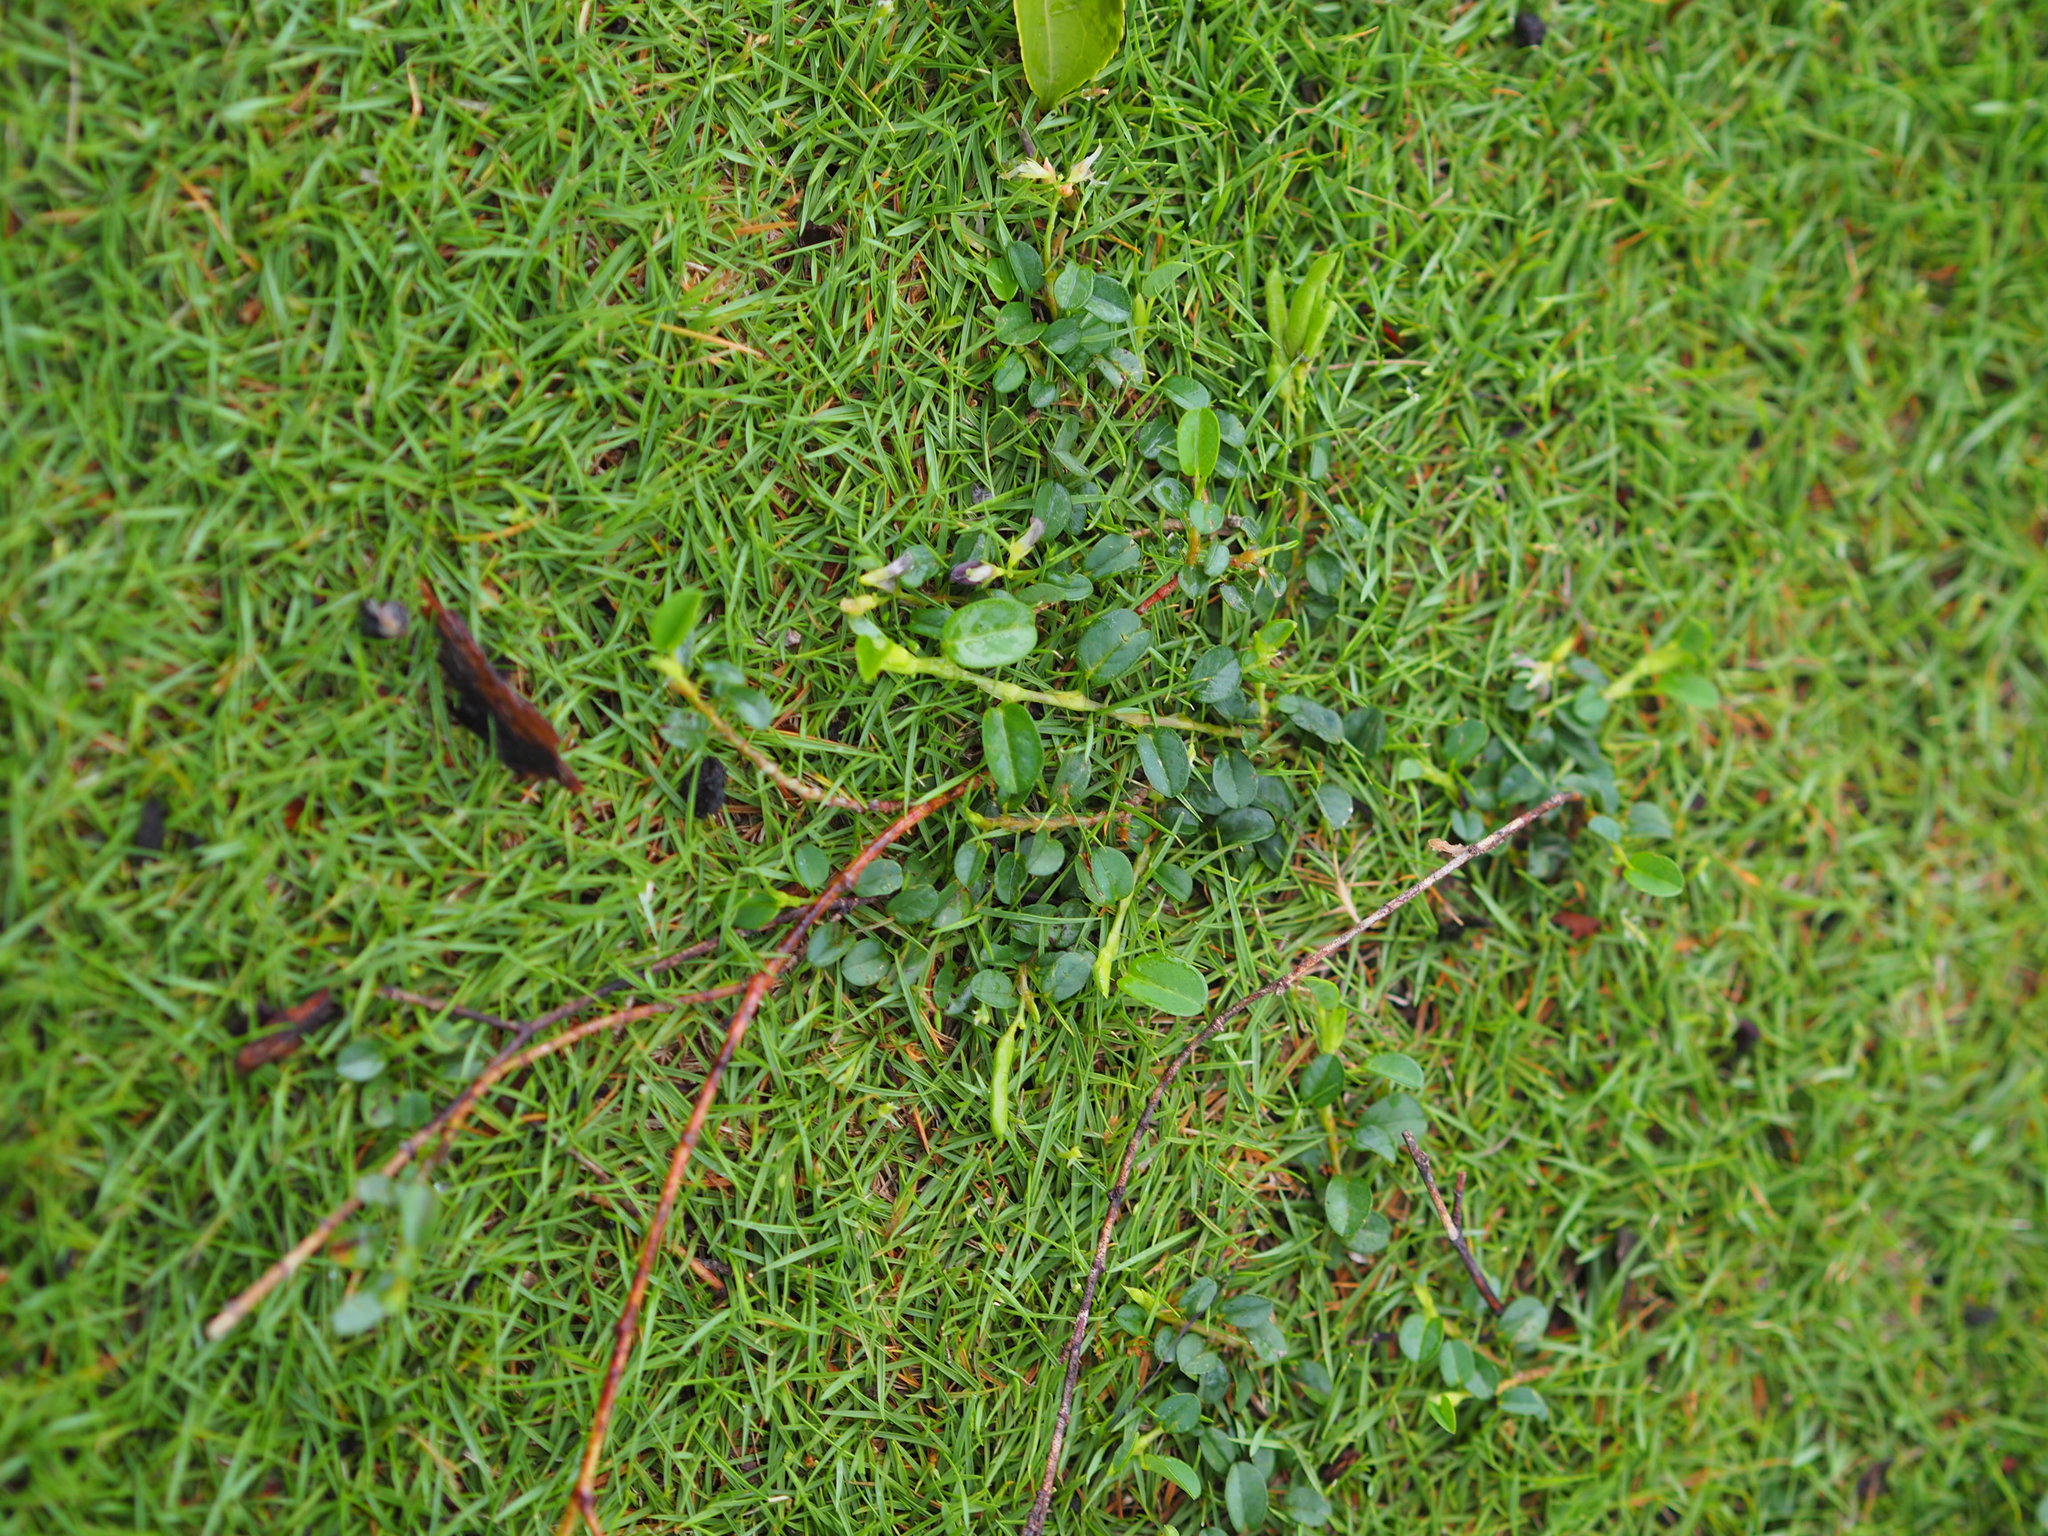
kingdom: Plantae
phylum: Tracheophyta
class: Magnoliopsida
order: Fabales
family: Fabaceae
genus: Alysicarpus
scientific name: Alysicarpus vaginalis
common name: White moneywort
